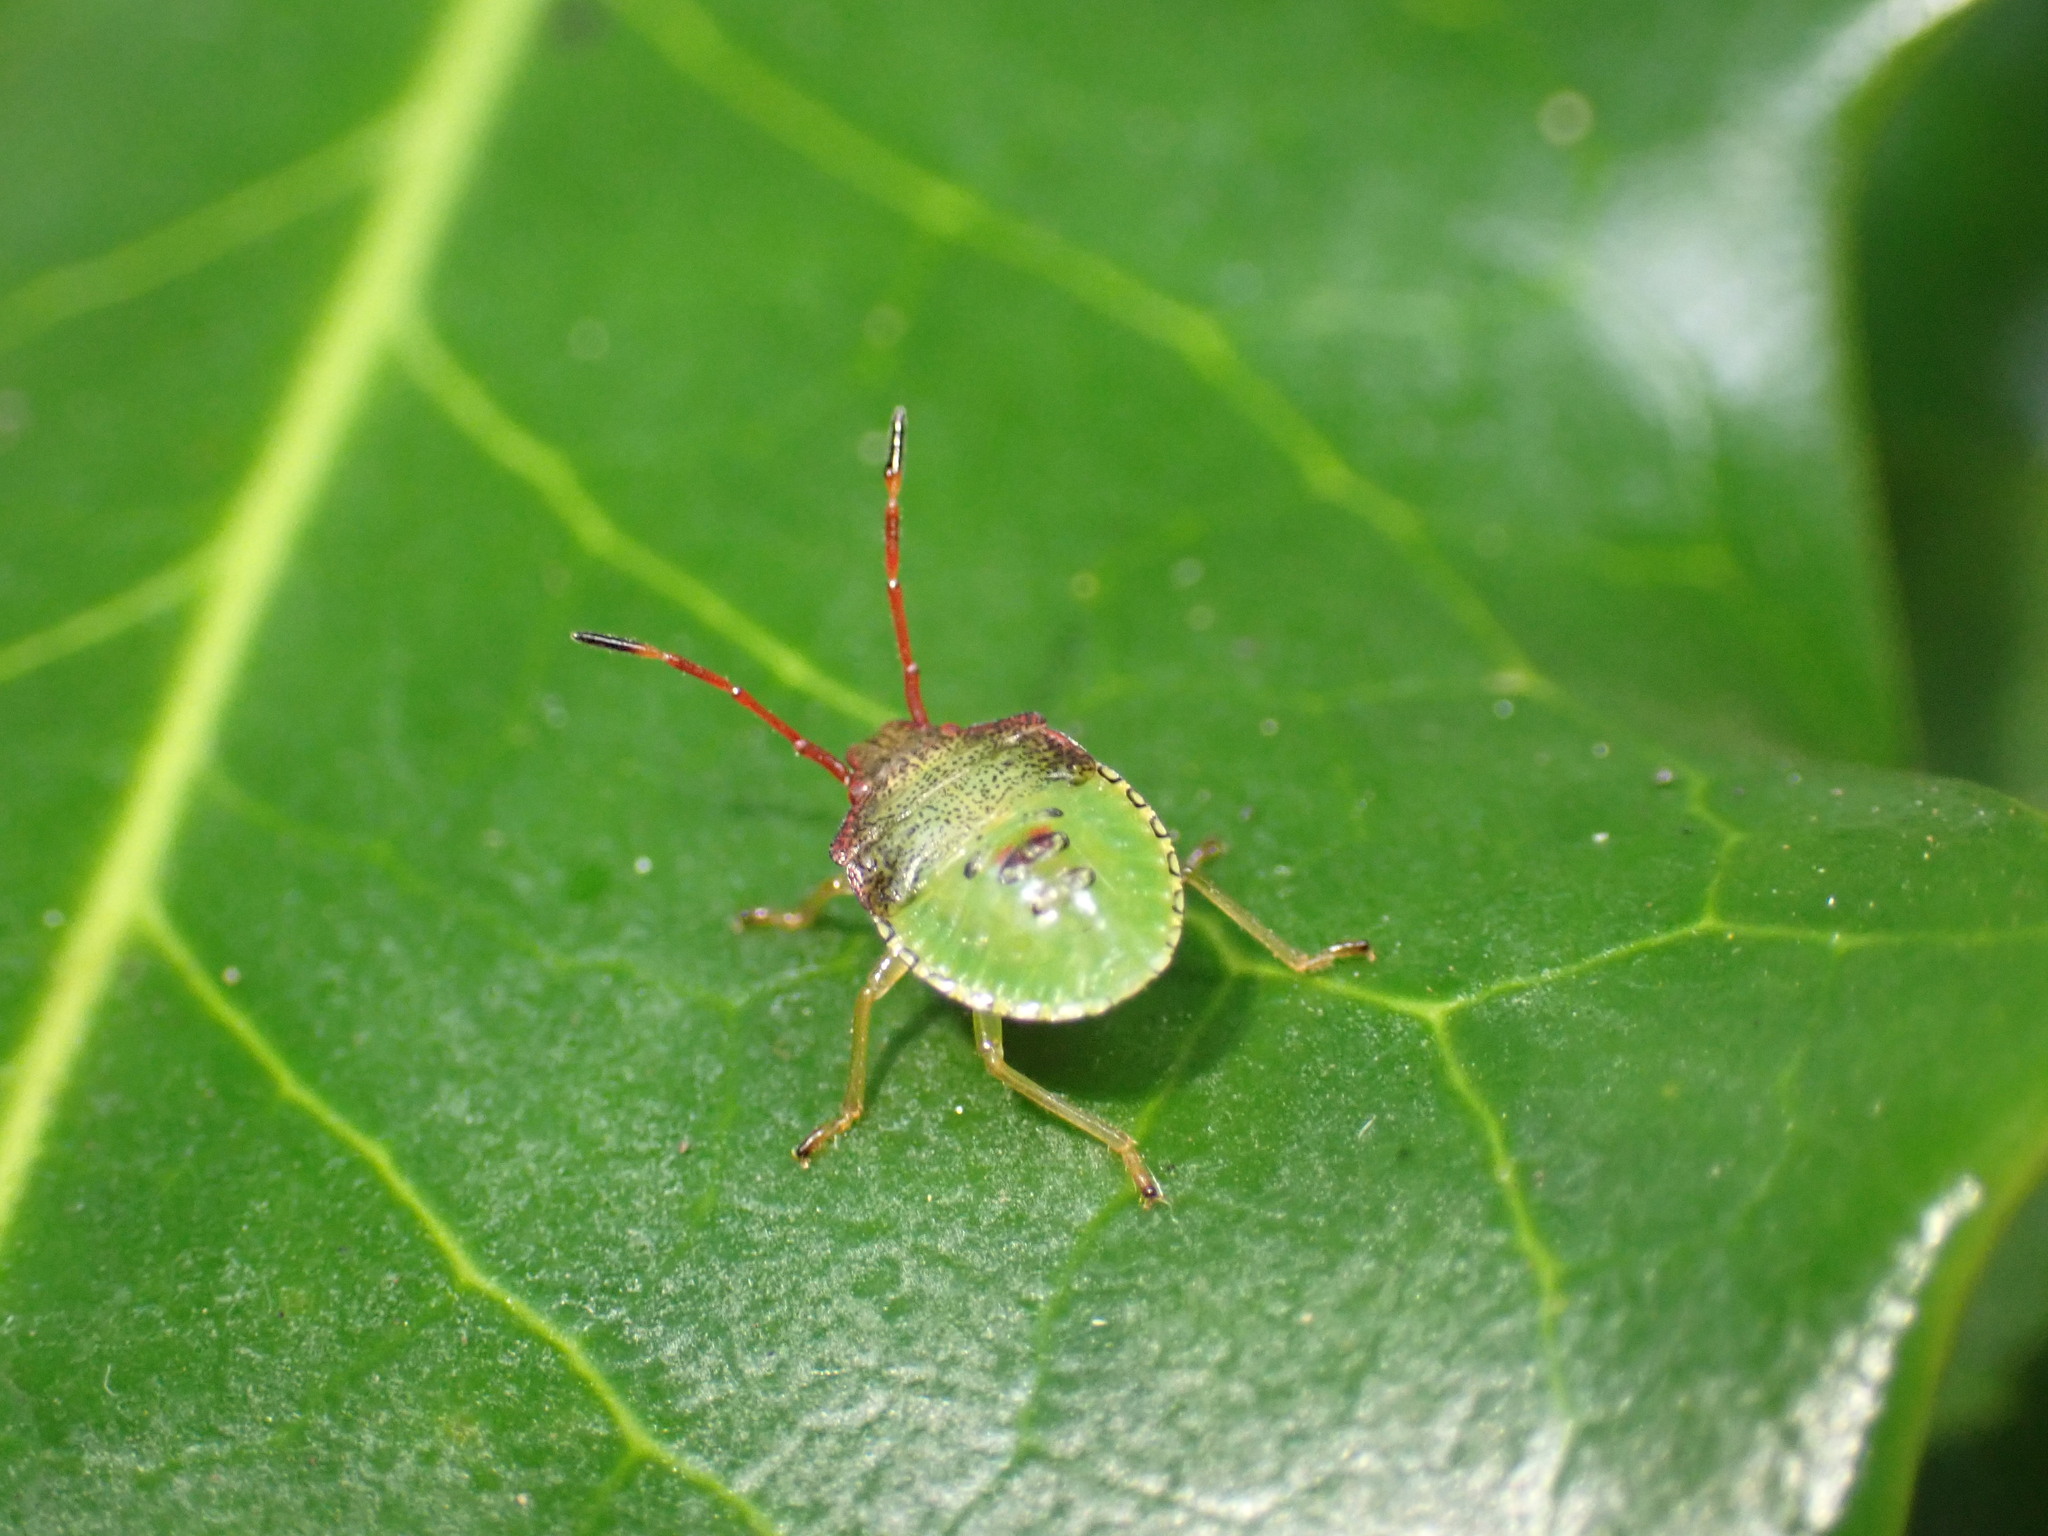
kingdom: Animalia
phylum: Arthropoda
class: Insecta
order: Hemiptera
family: Acanthosomatidae
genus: Acanthosoma
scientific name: Acanthosoma haemorrhoidale
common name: Hawthorn shieldbug
